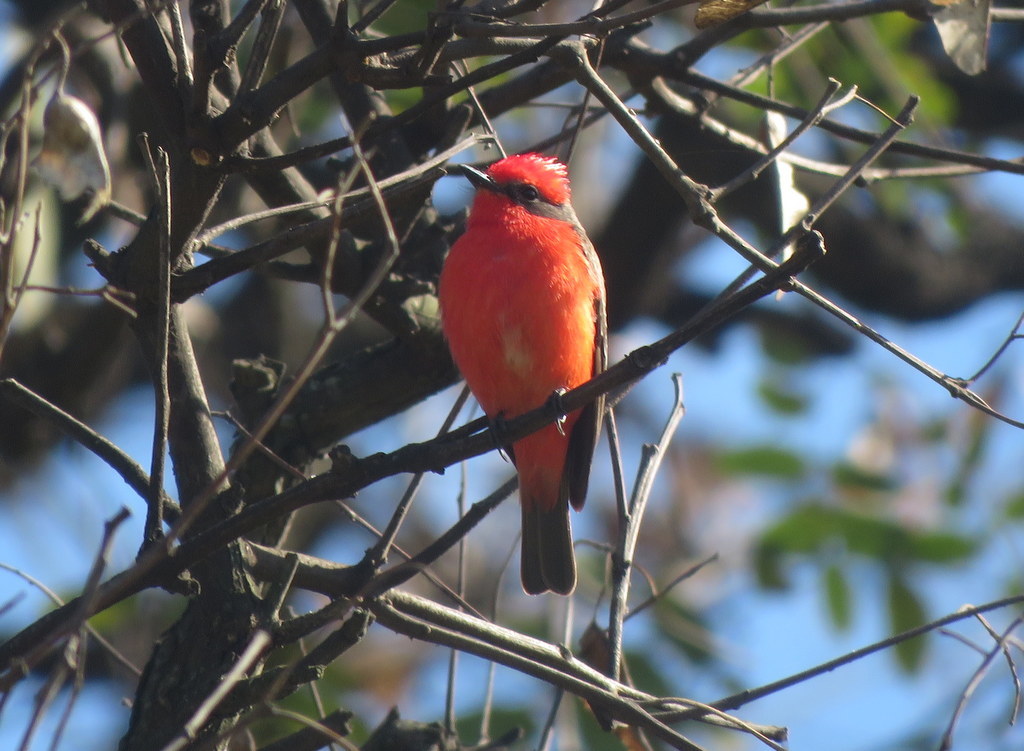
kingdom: Animalia
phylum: Chordata
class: Aves
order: Passeriformes
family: Tyrannidae
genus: Pyrocephalus
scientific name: Pyrocephalus rubinus
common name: Vermilion flycatcher
